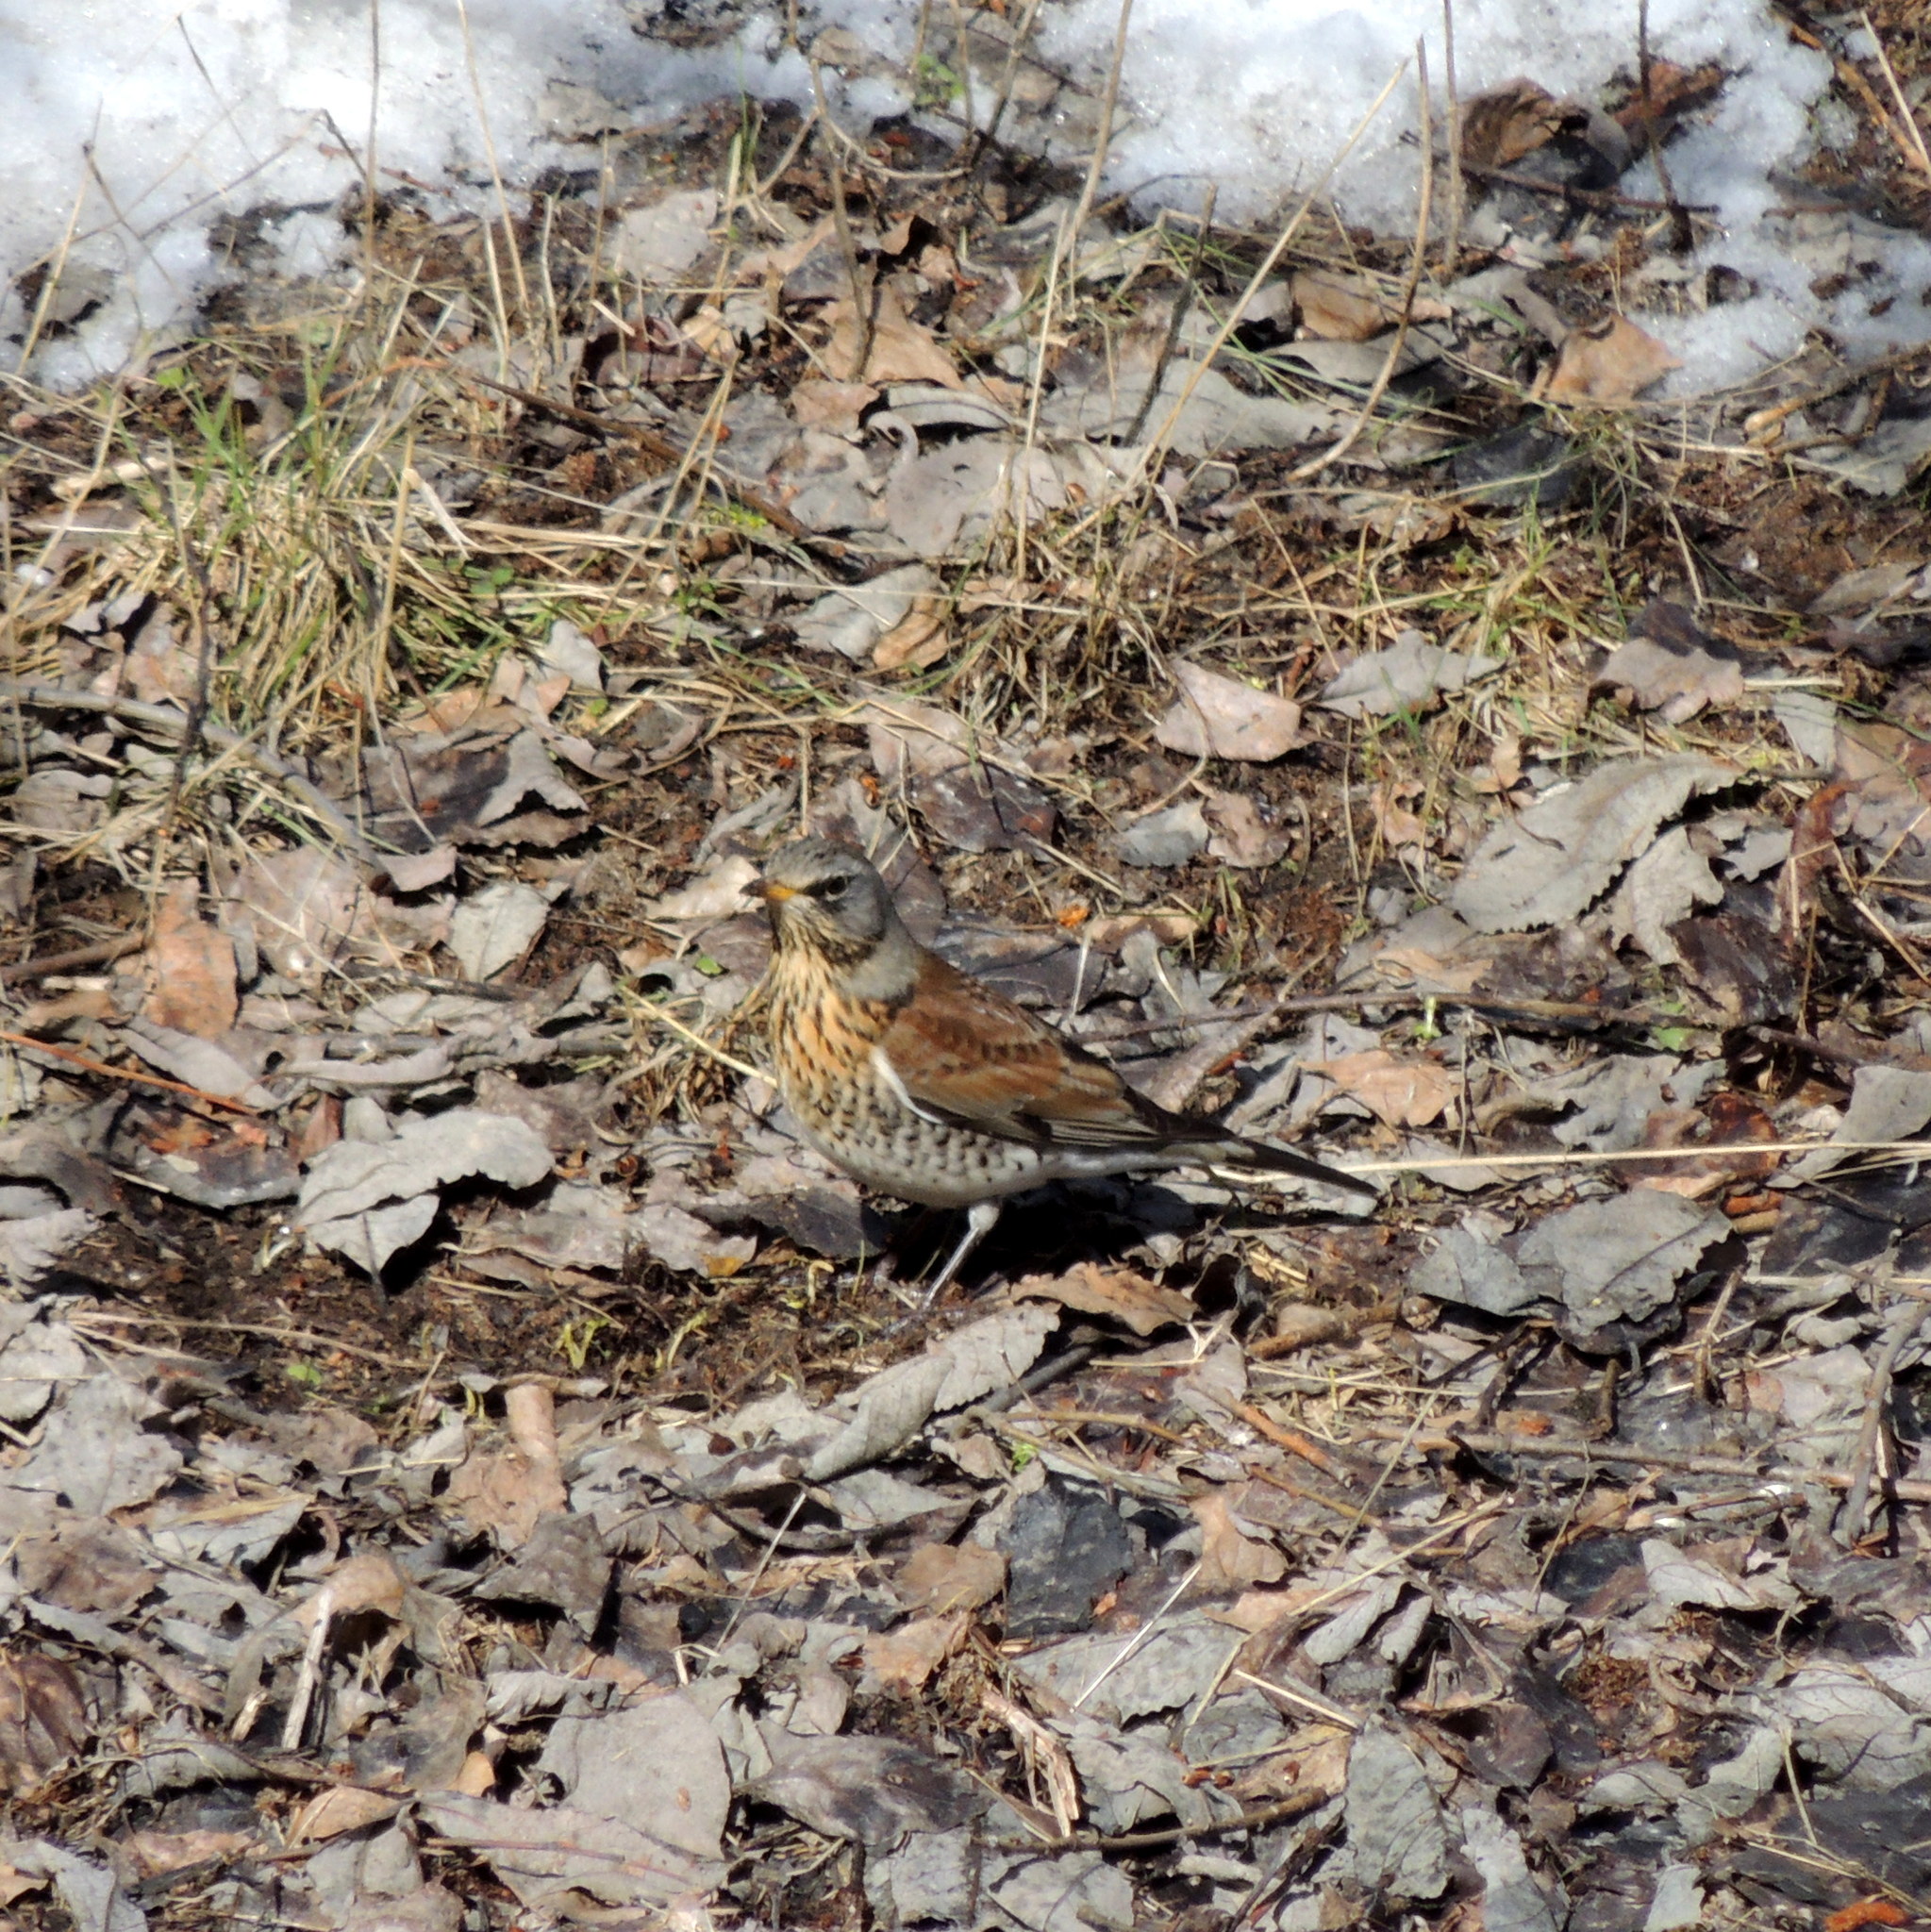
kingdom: Animalia
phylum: Chordata
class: Aves
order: Passeriformes
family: Turdidae
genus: Turdus
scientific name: Turdus pilaris
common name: Fieldfare
